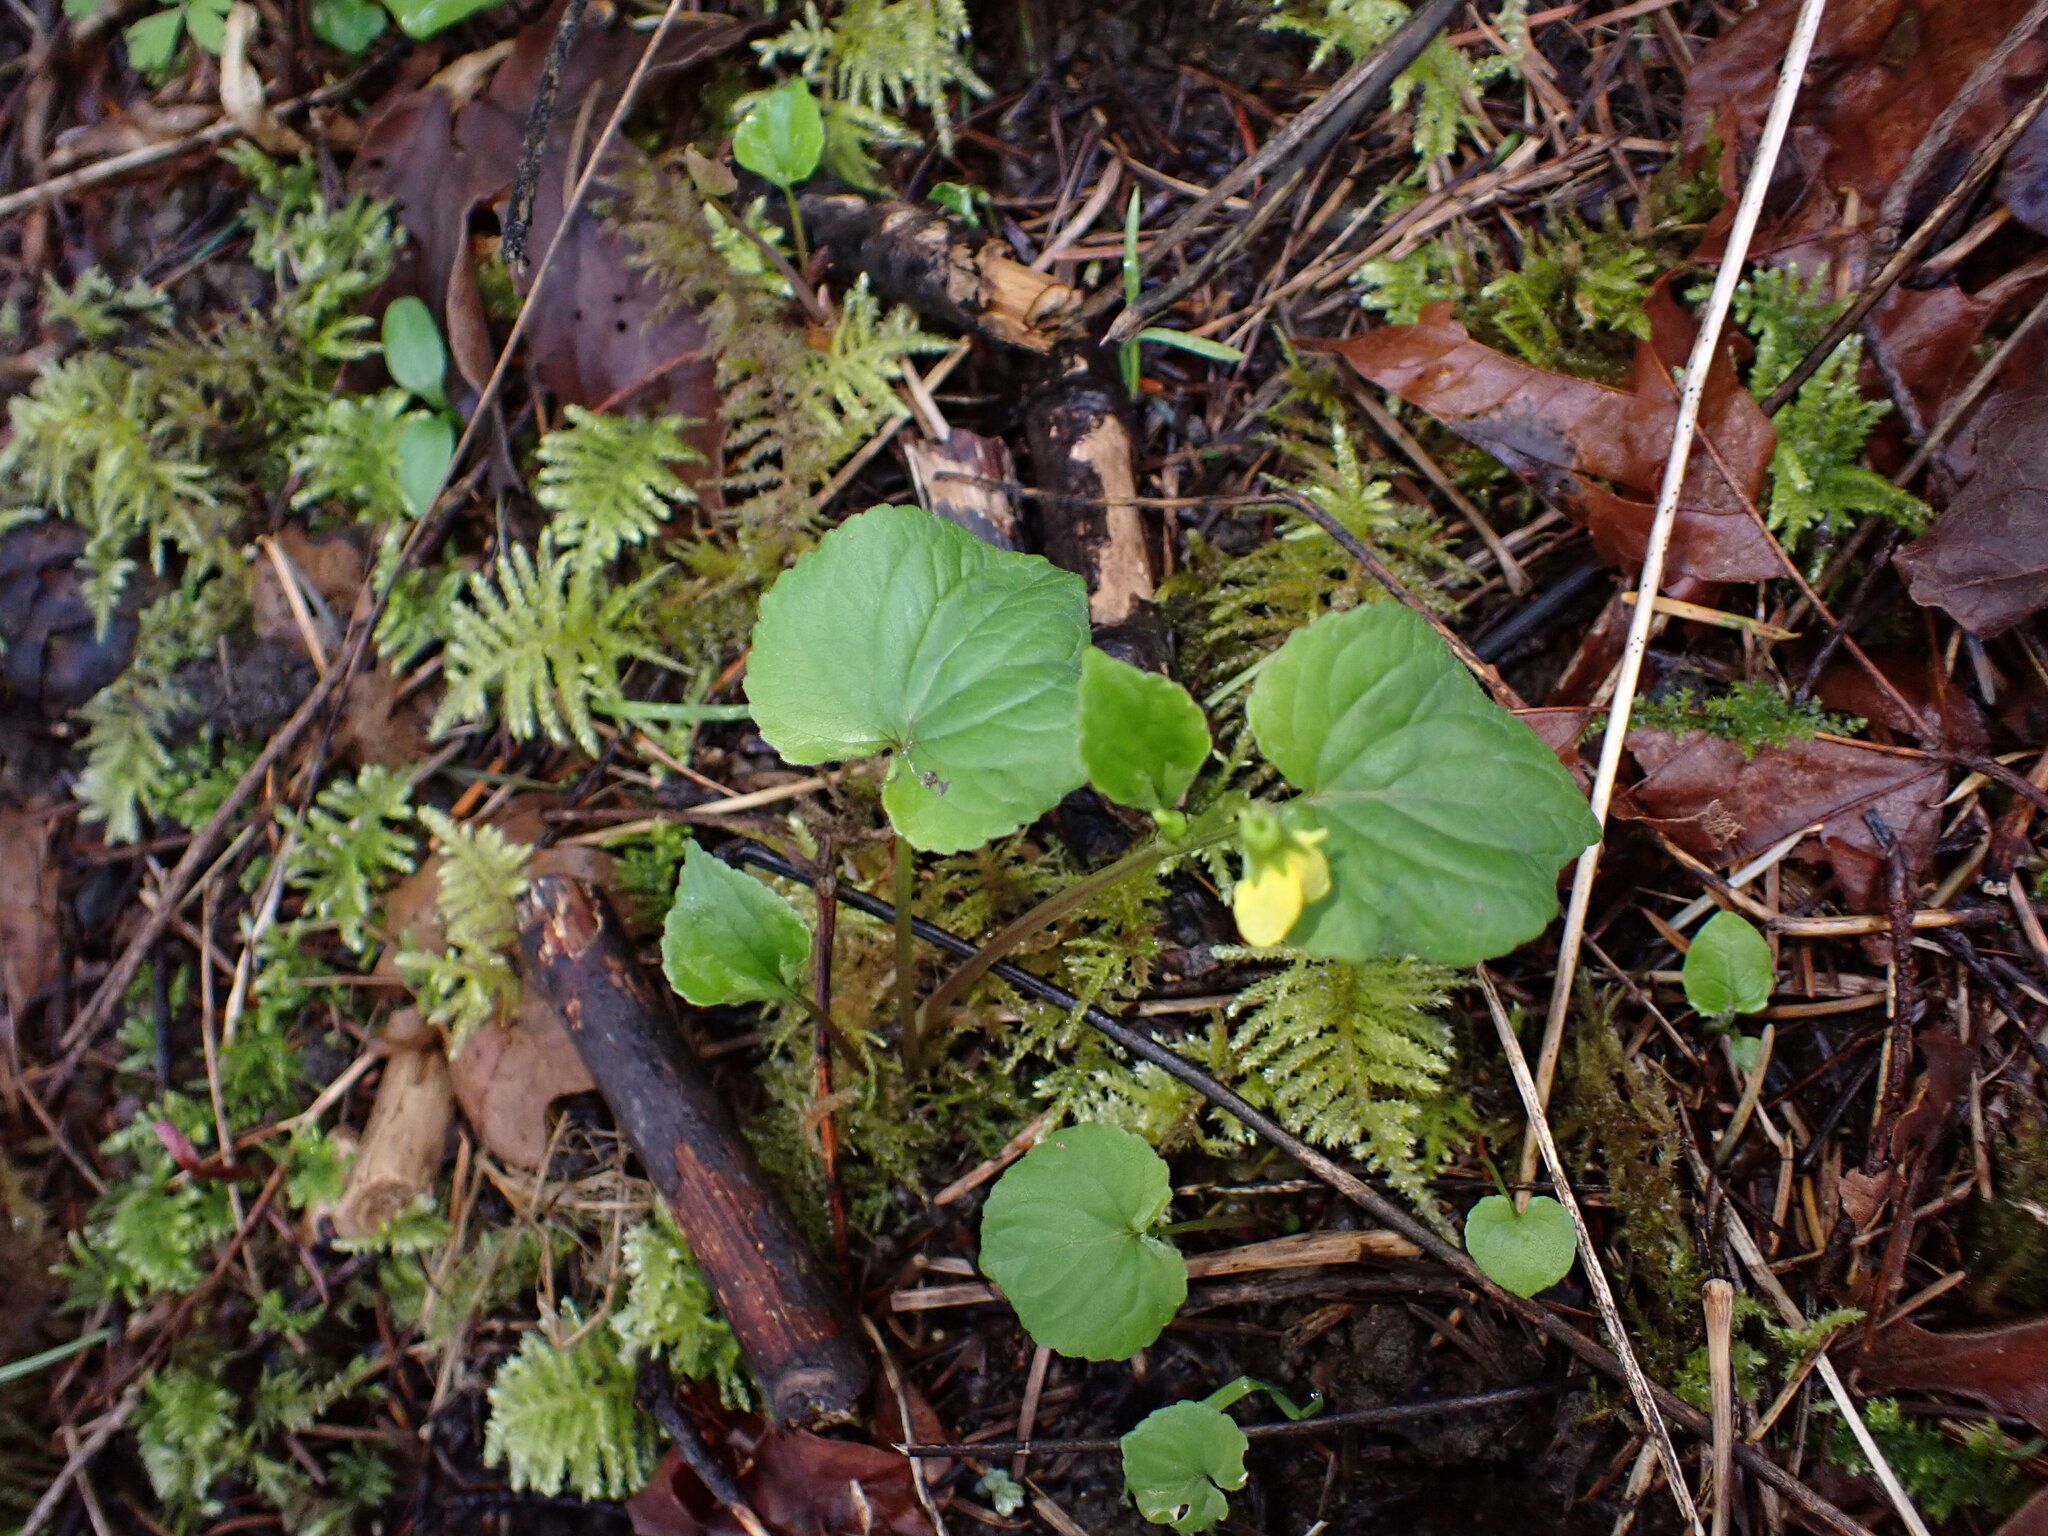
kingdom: Plantae
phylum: Tracheophyta
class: Magnoliopsida
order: Malpighiales
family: Violaceae
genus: Viola
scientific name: Viola glabella
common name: Stream violet
